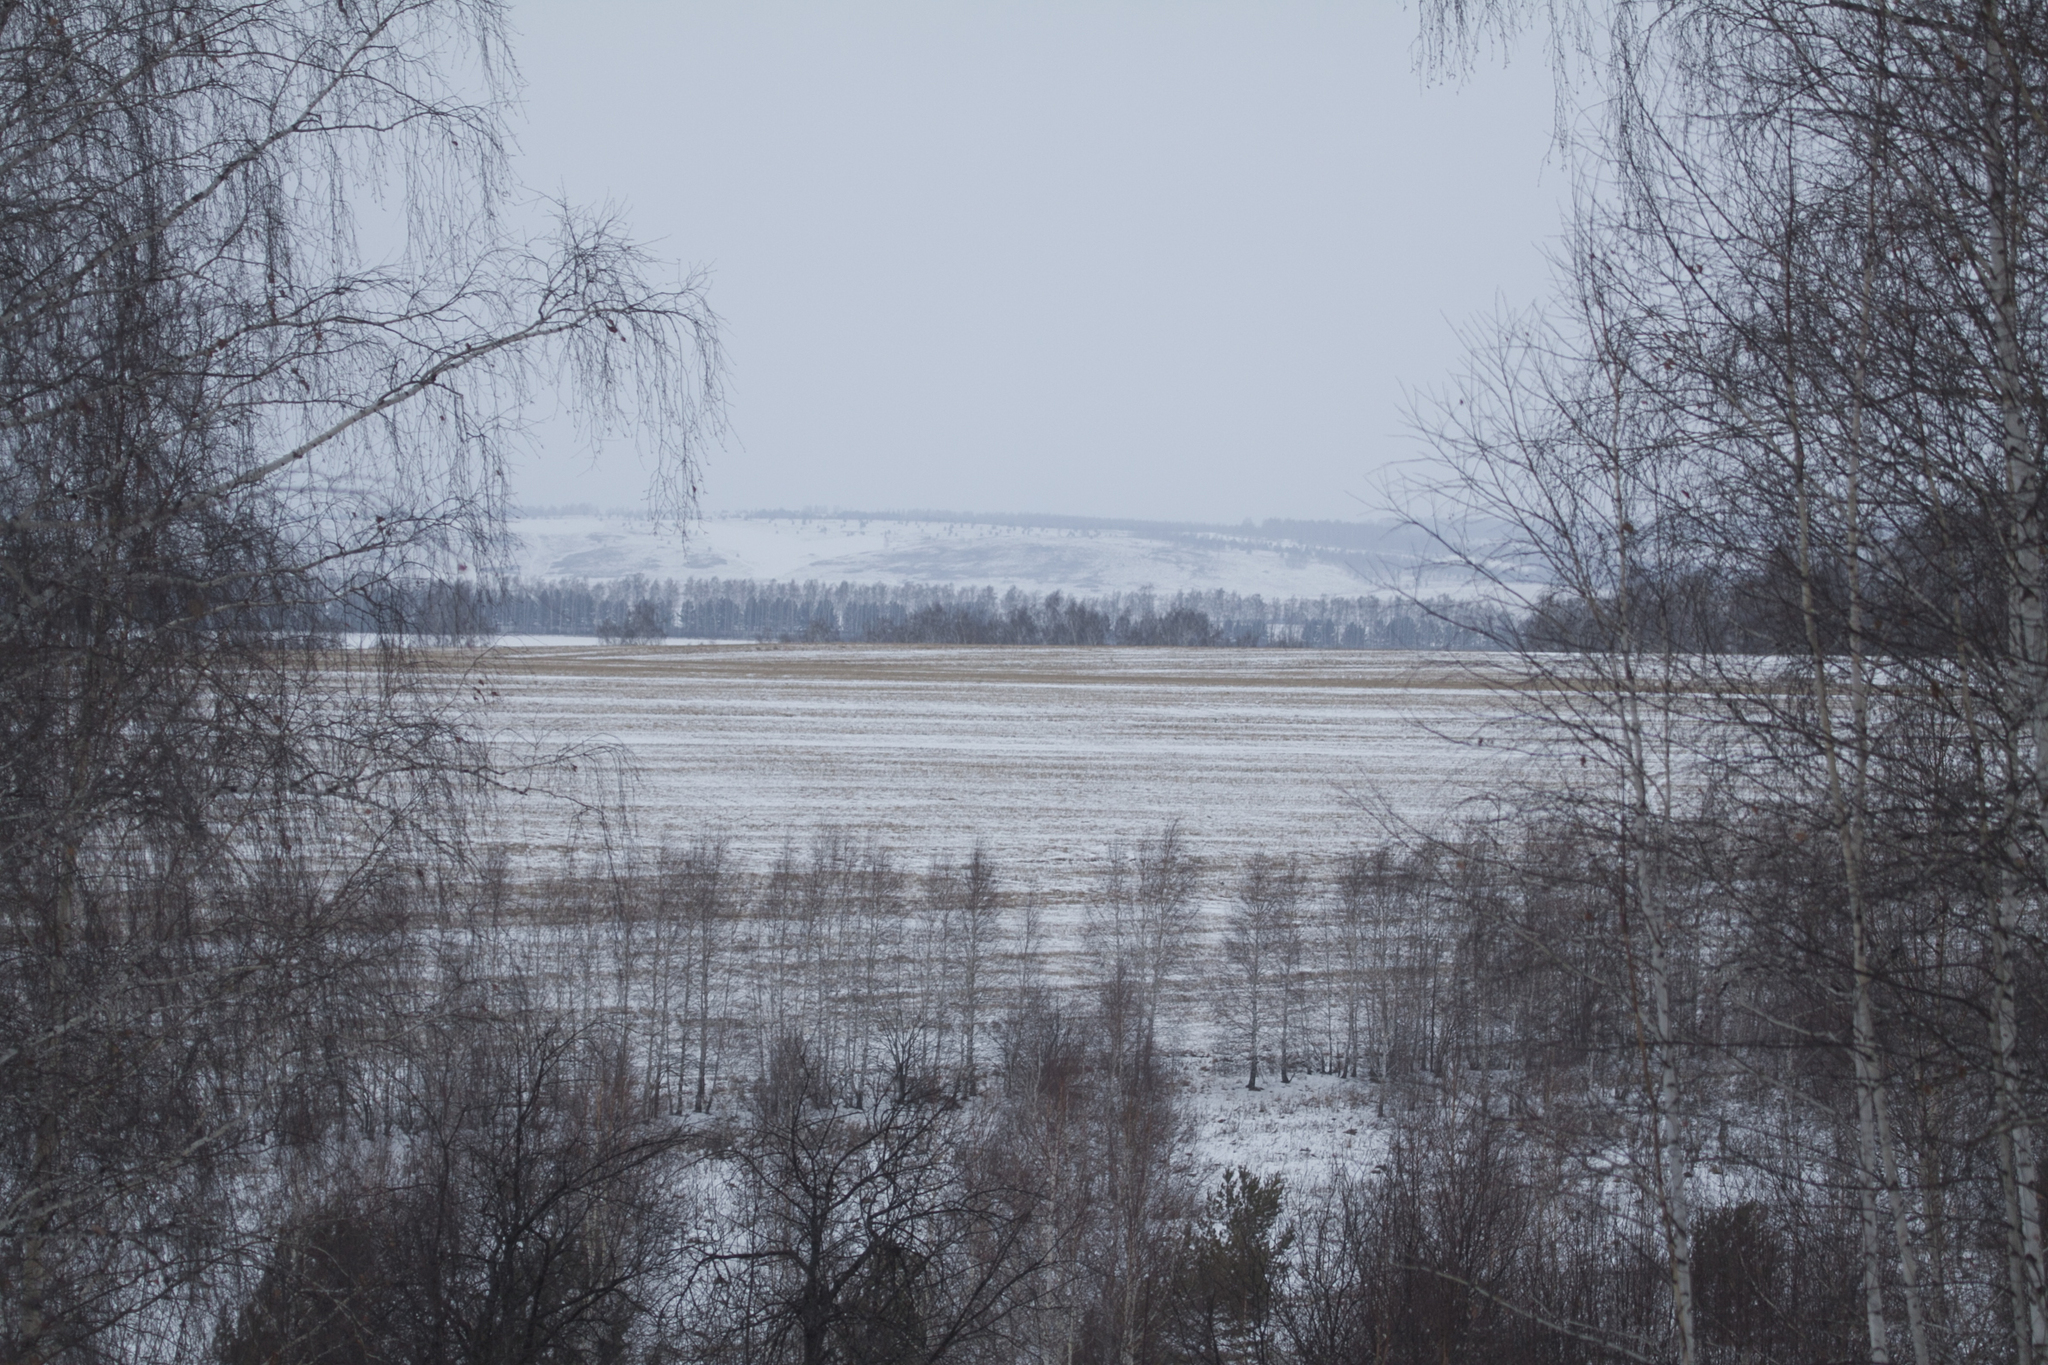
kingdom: Plantae
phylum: Tracheophyta
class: Magnoliopsida
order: Fagales
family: Betulaceae
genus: Betula
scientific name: Betula pendula
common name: Silver birch
